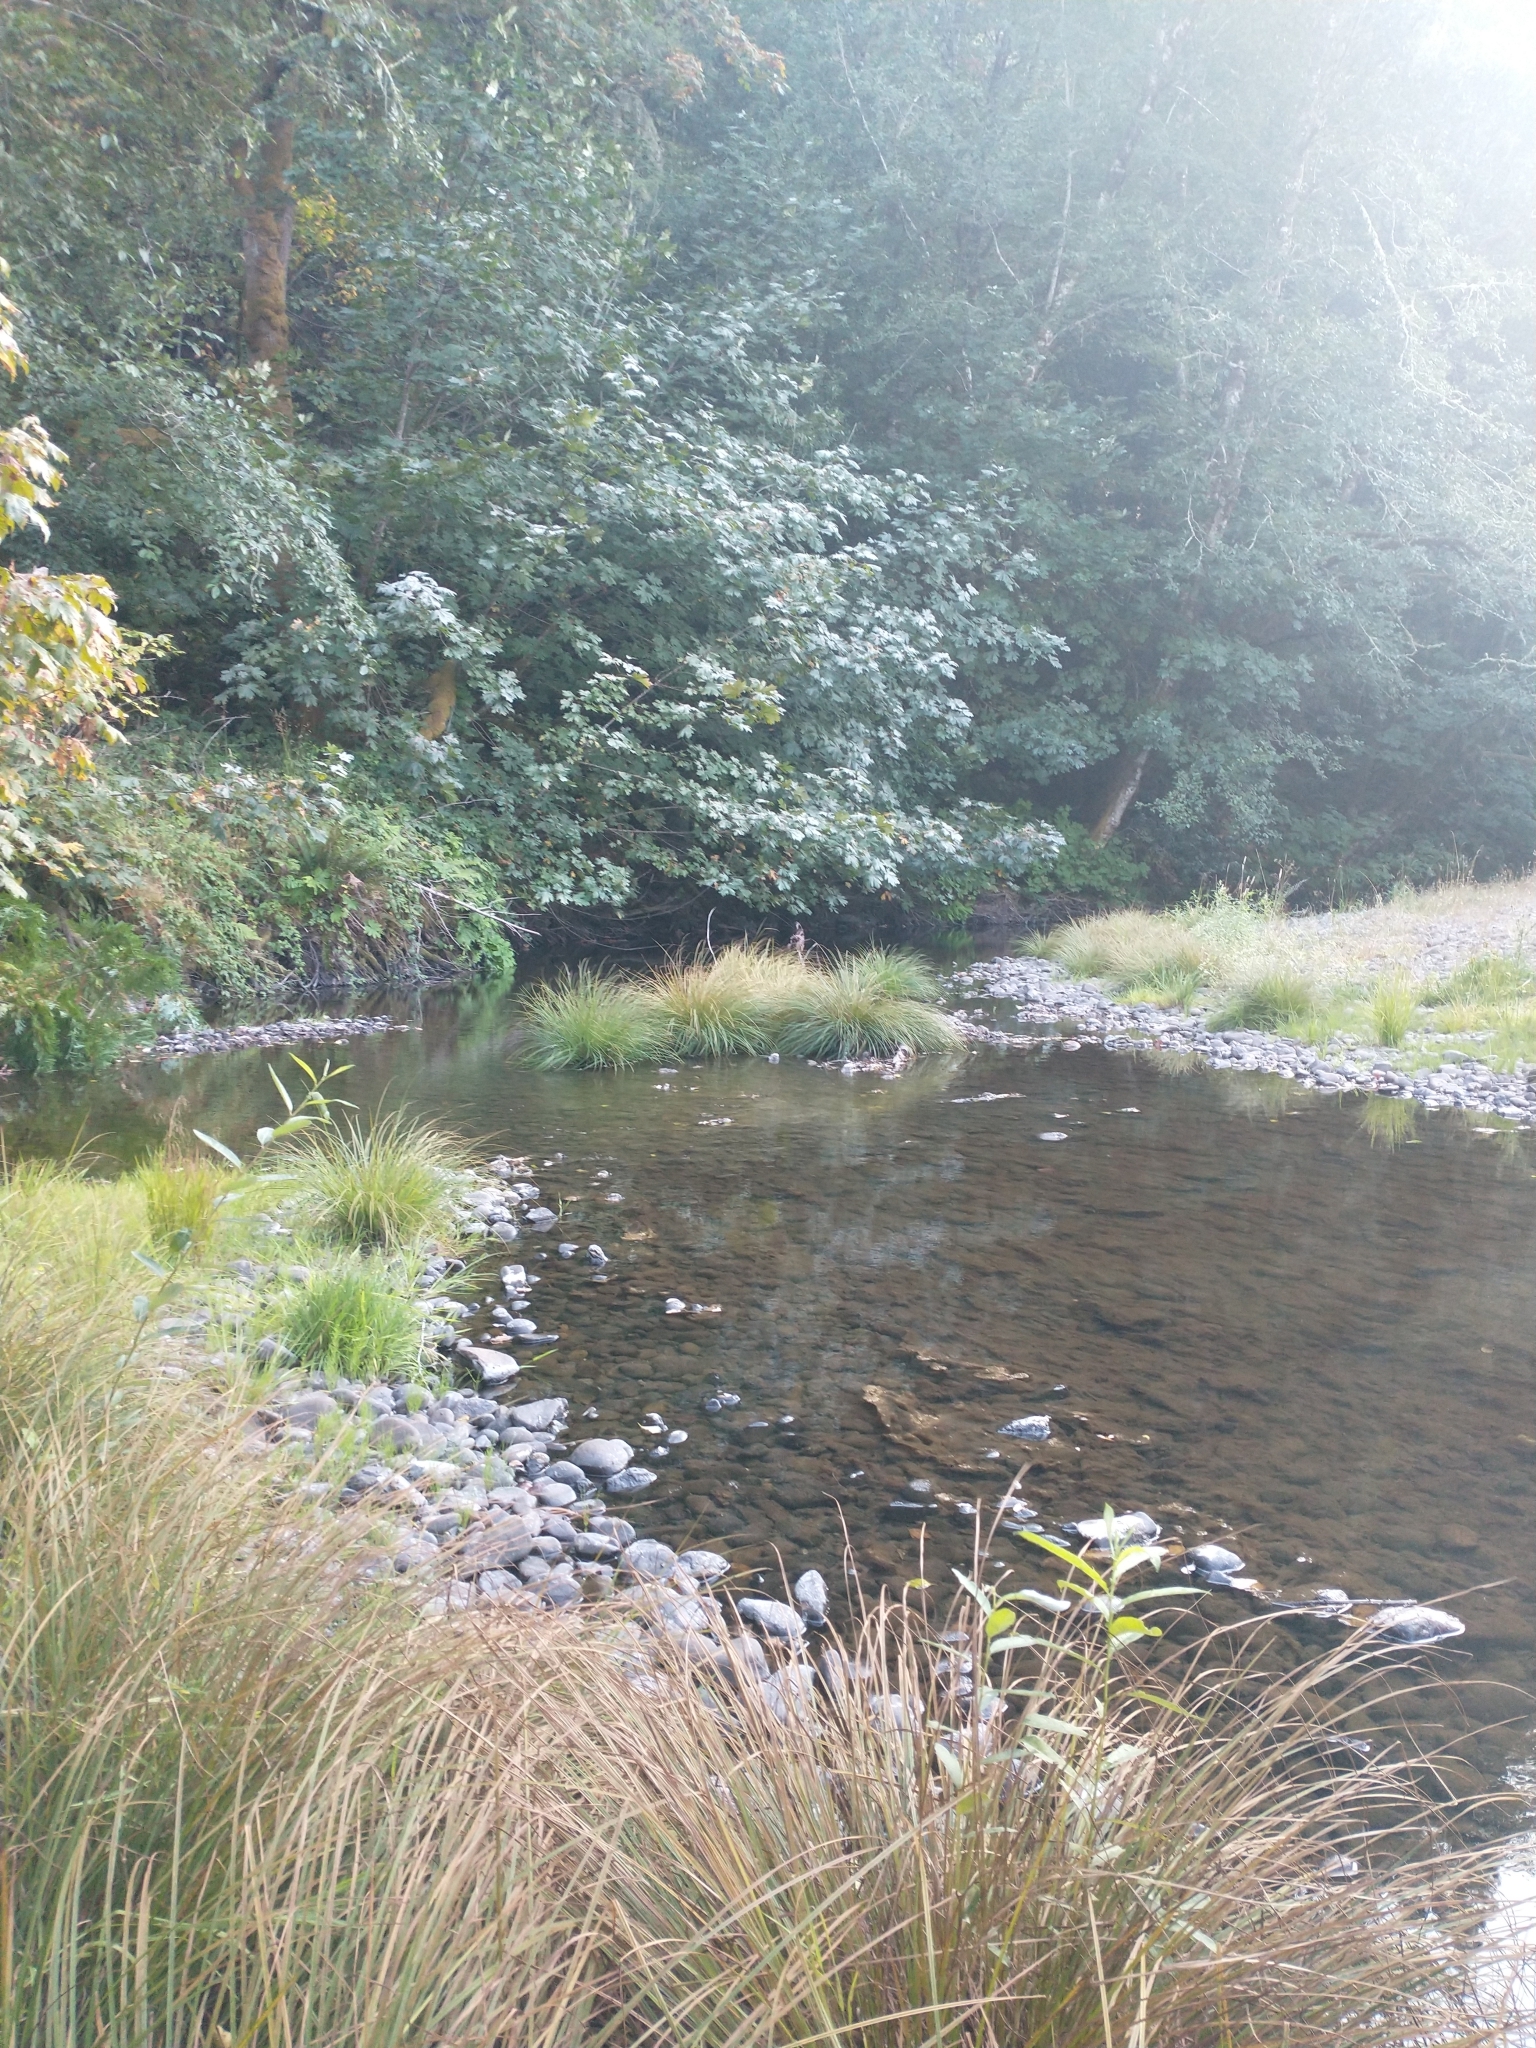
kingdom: Plantae
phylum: Tracheophyta
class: Magnoliopsida
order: Sapindales
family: Sapindaceae
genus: Acer
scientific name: Acer macrophyllum
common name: Oregon maple
